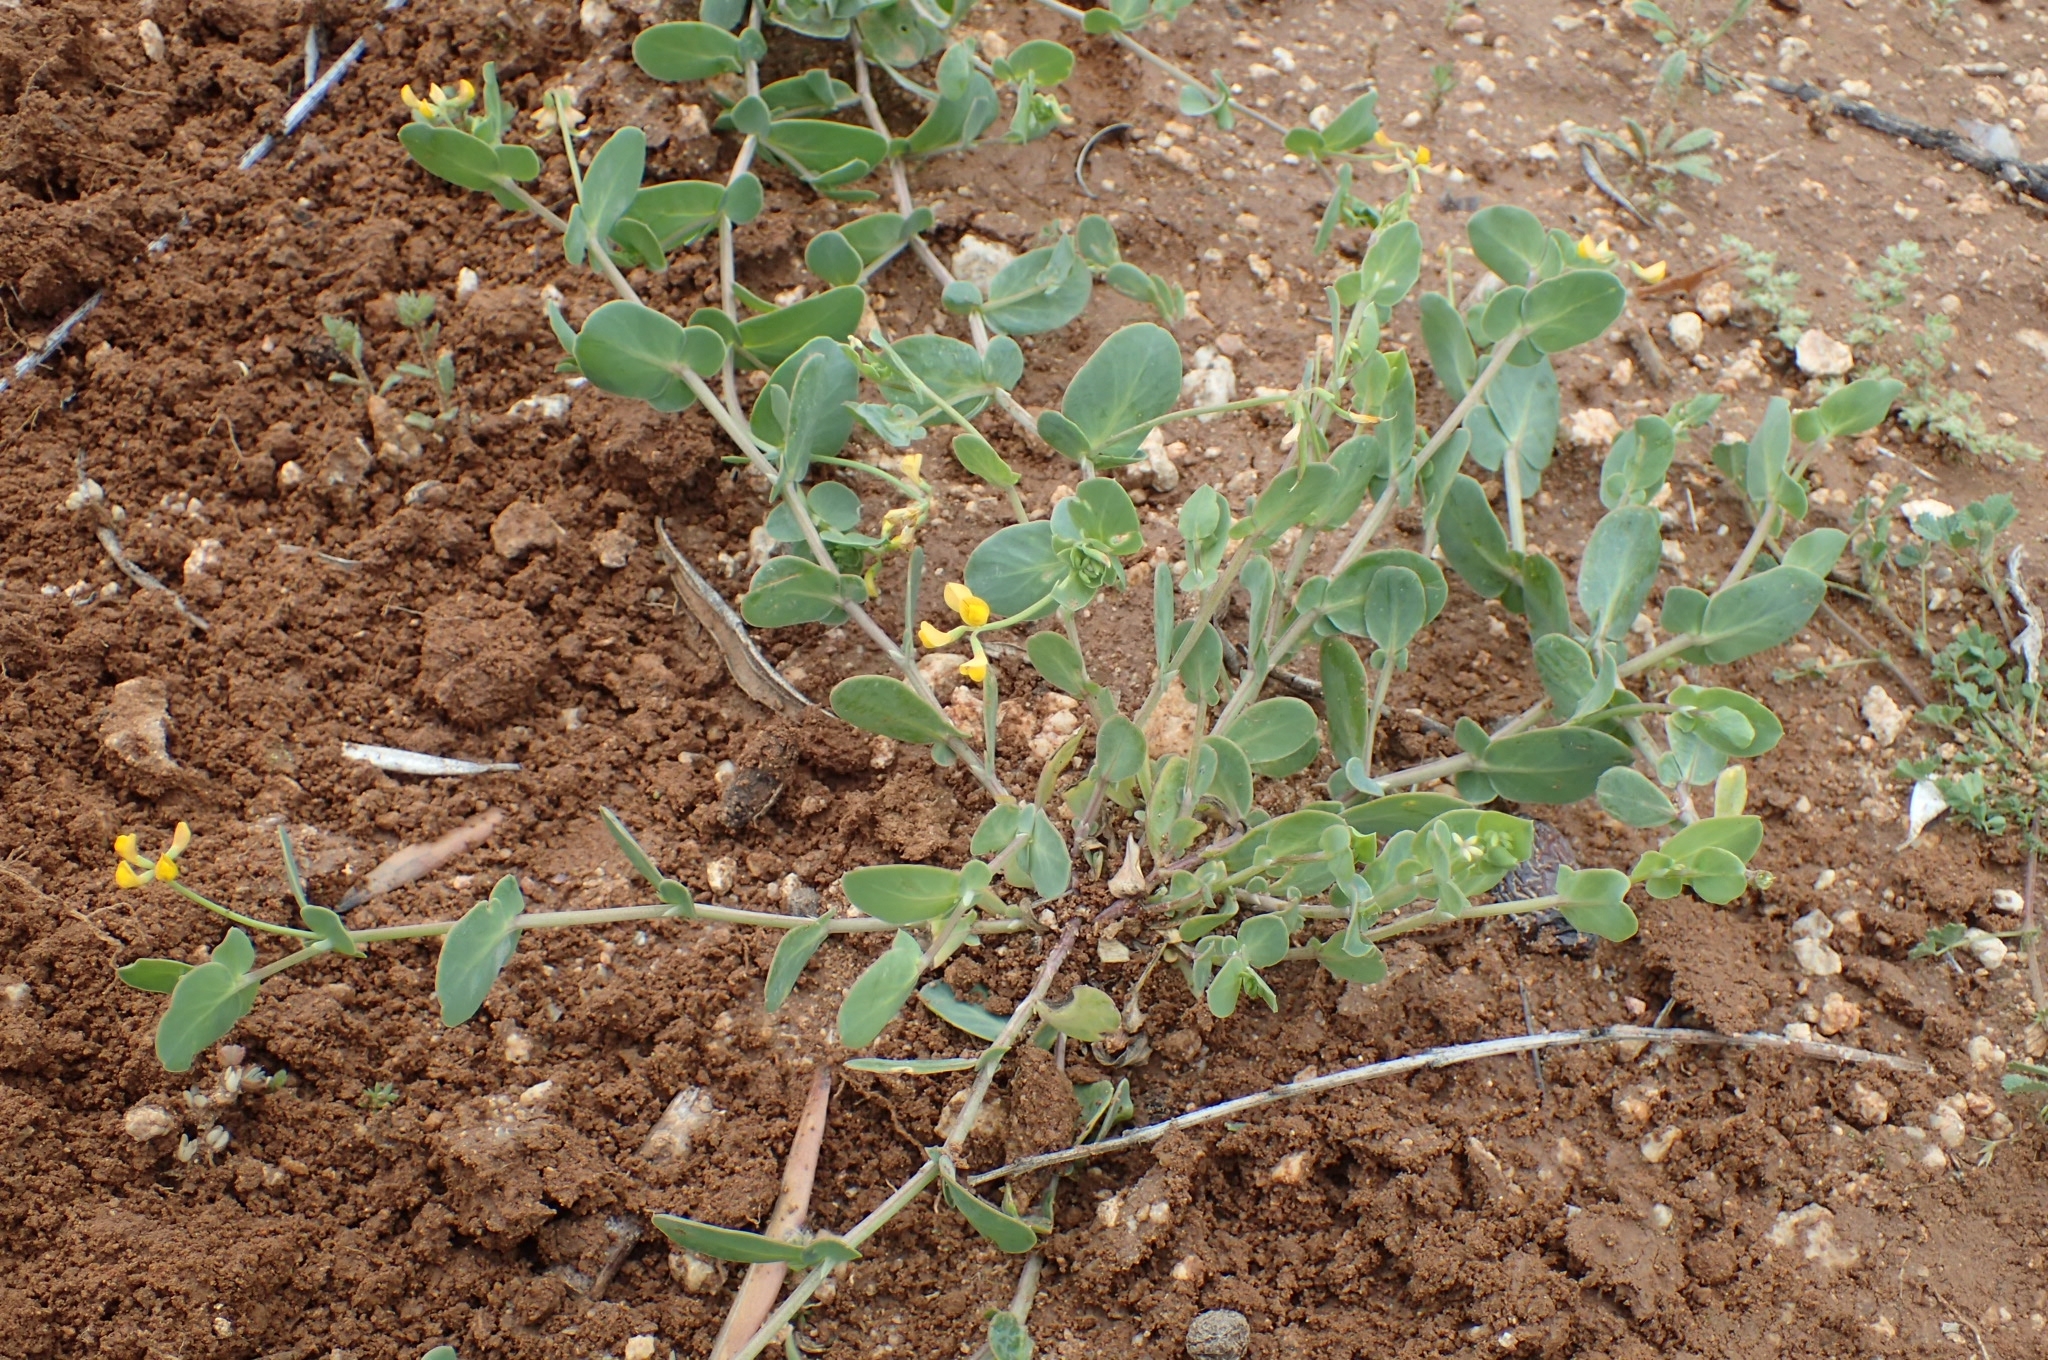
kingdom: Plantae
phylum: Tracheophyta
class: Magnoliopsida
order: Fabales
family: Fabaceae
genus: Coronilla
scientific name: Coronilla scorpioides
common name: Annual scorpion-vetch
